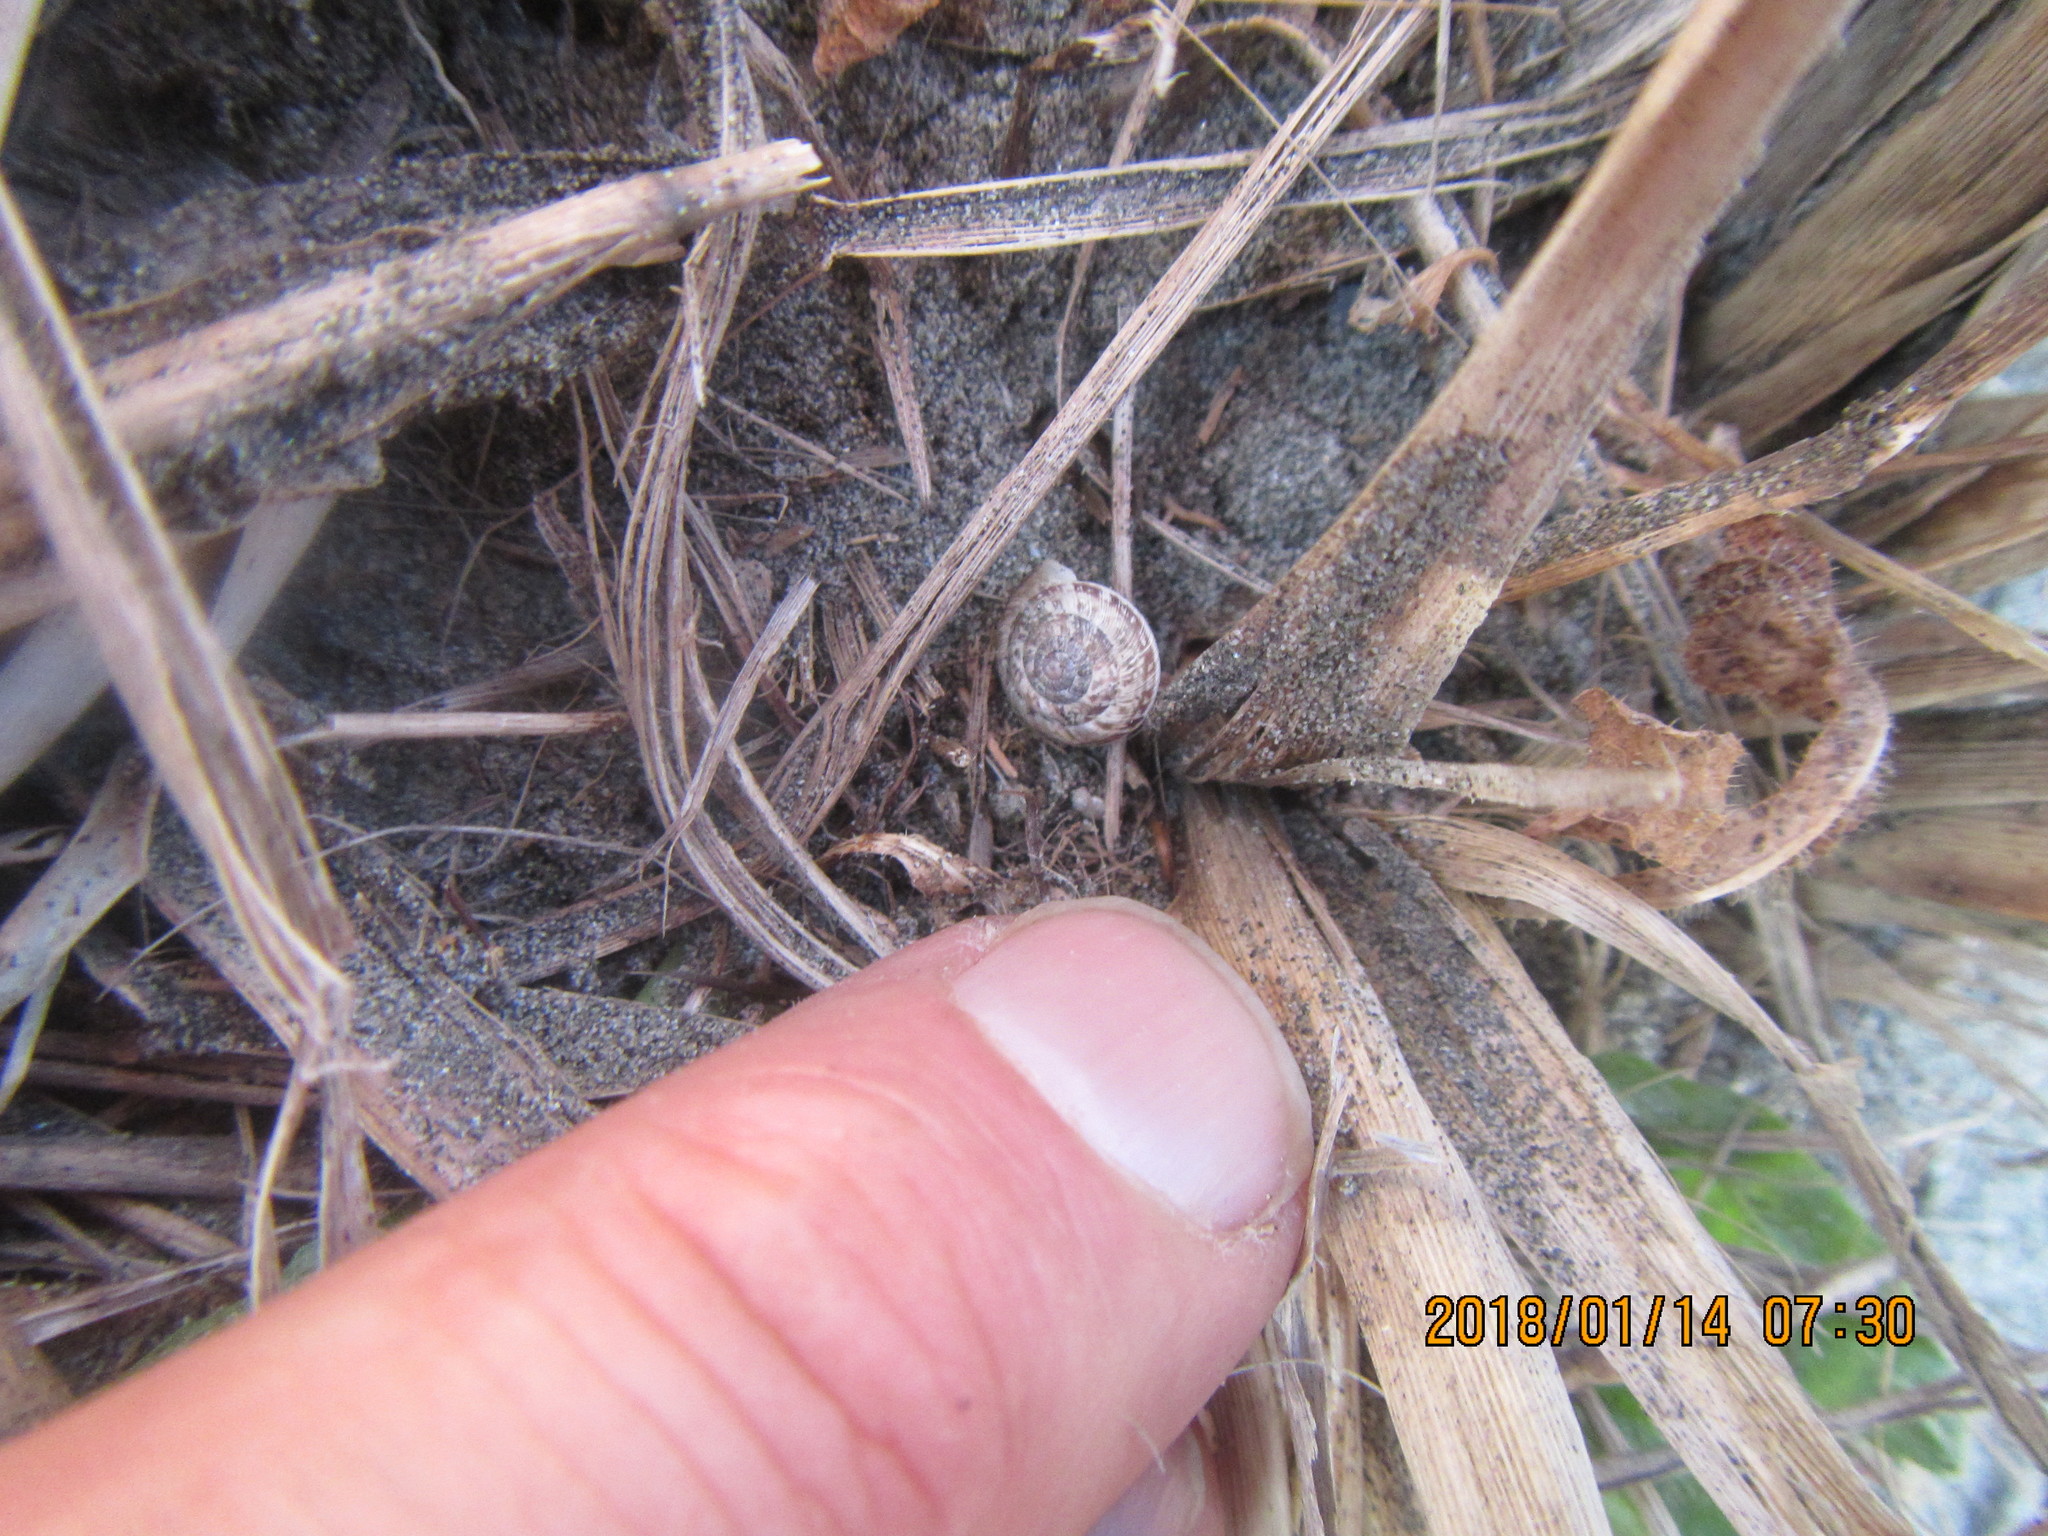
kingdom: Animalia
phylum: Mollusca
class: Gastropoda
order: Stylommatophora
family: Geomitridae
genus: Xeroplexa
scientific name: Xeroplexa intersecta
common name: Wrinkled snail
